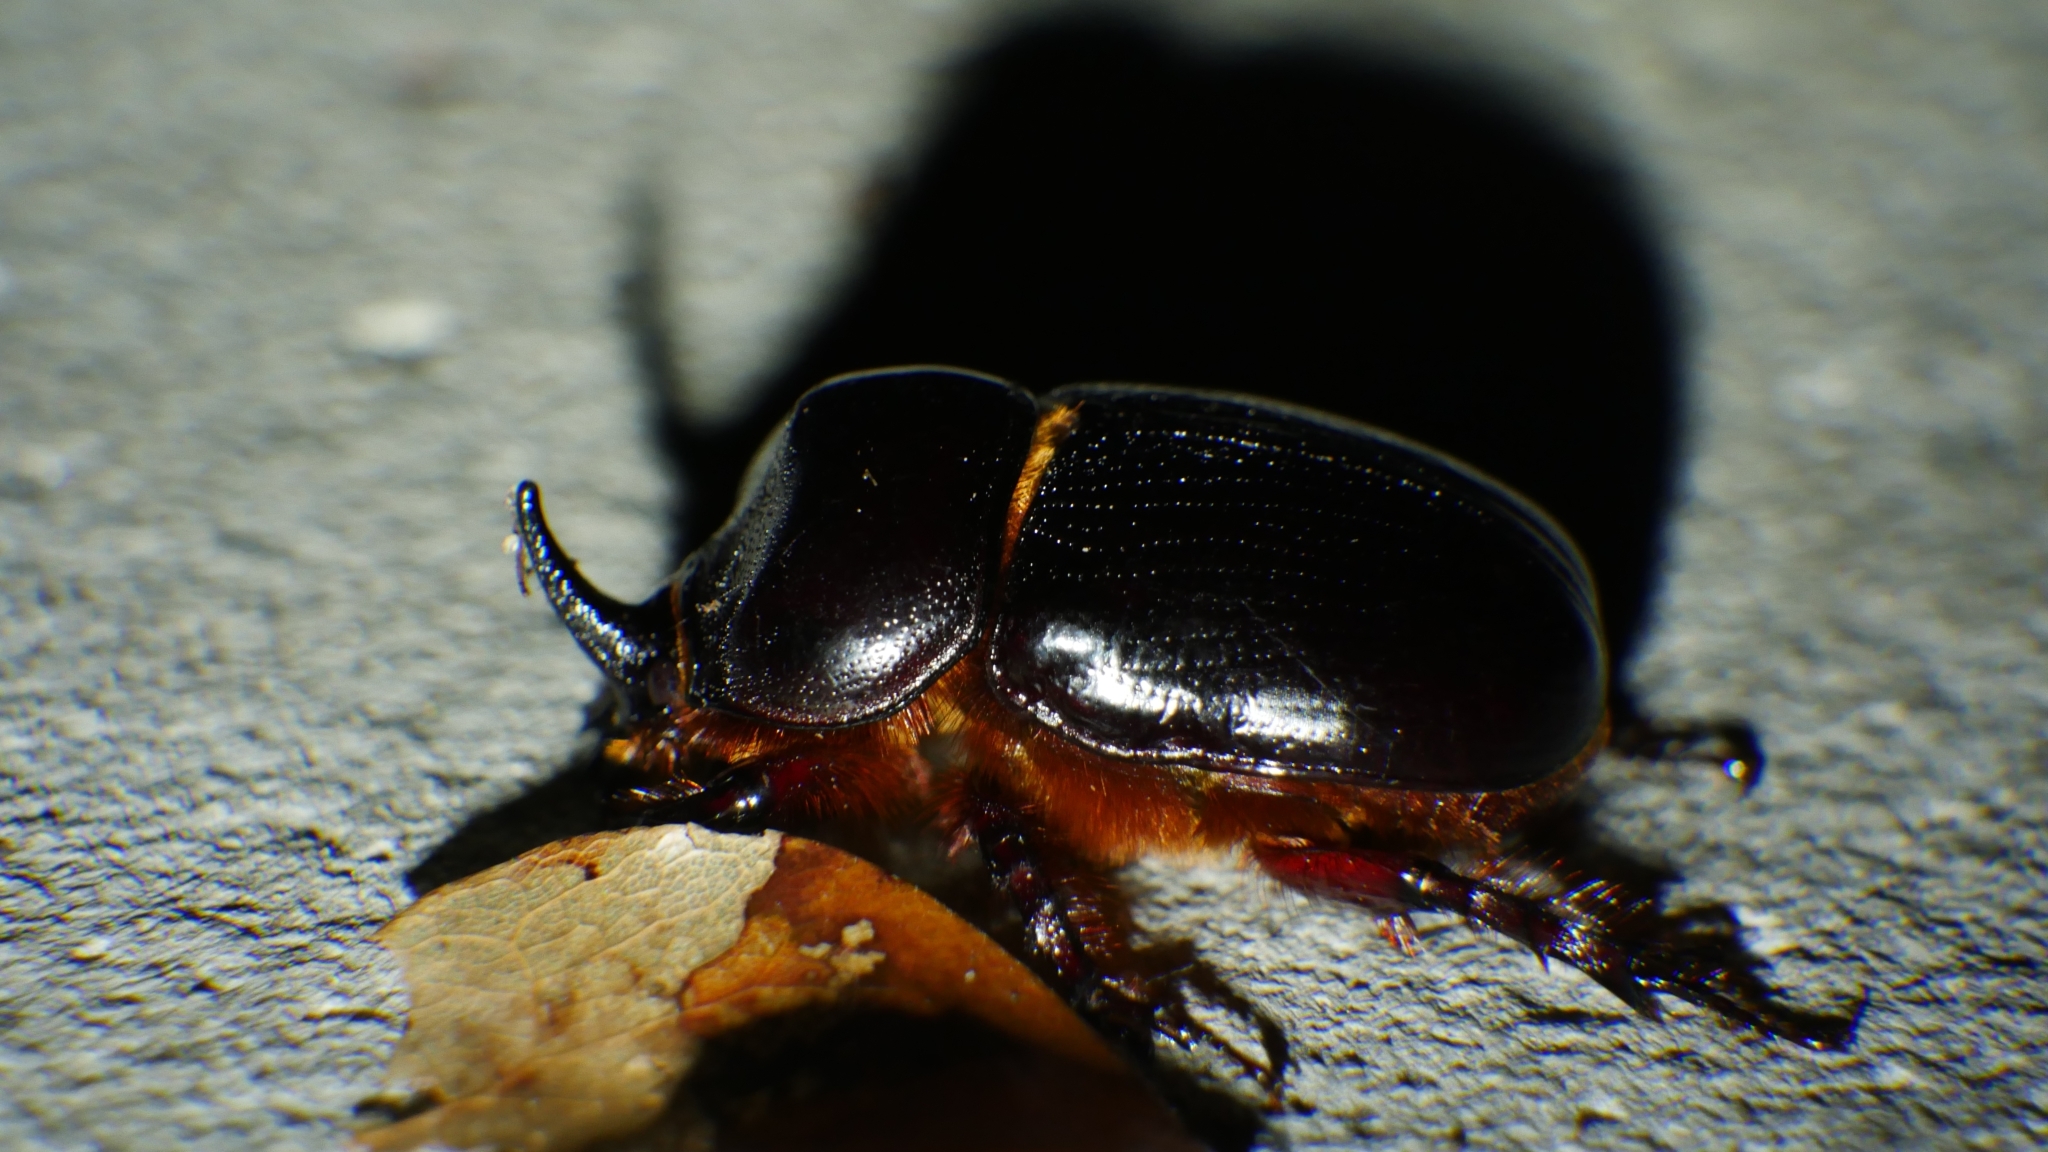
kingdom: Animalia
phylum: Arthropoda
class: Insecta
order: Coleoptera
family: Scarabaeidae
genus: Xyloryctes
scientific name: Xyloryctes jamaicensis
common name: Eastern rhinoceros beetle
